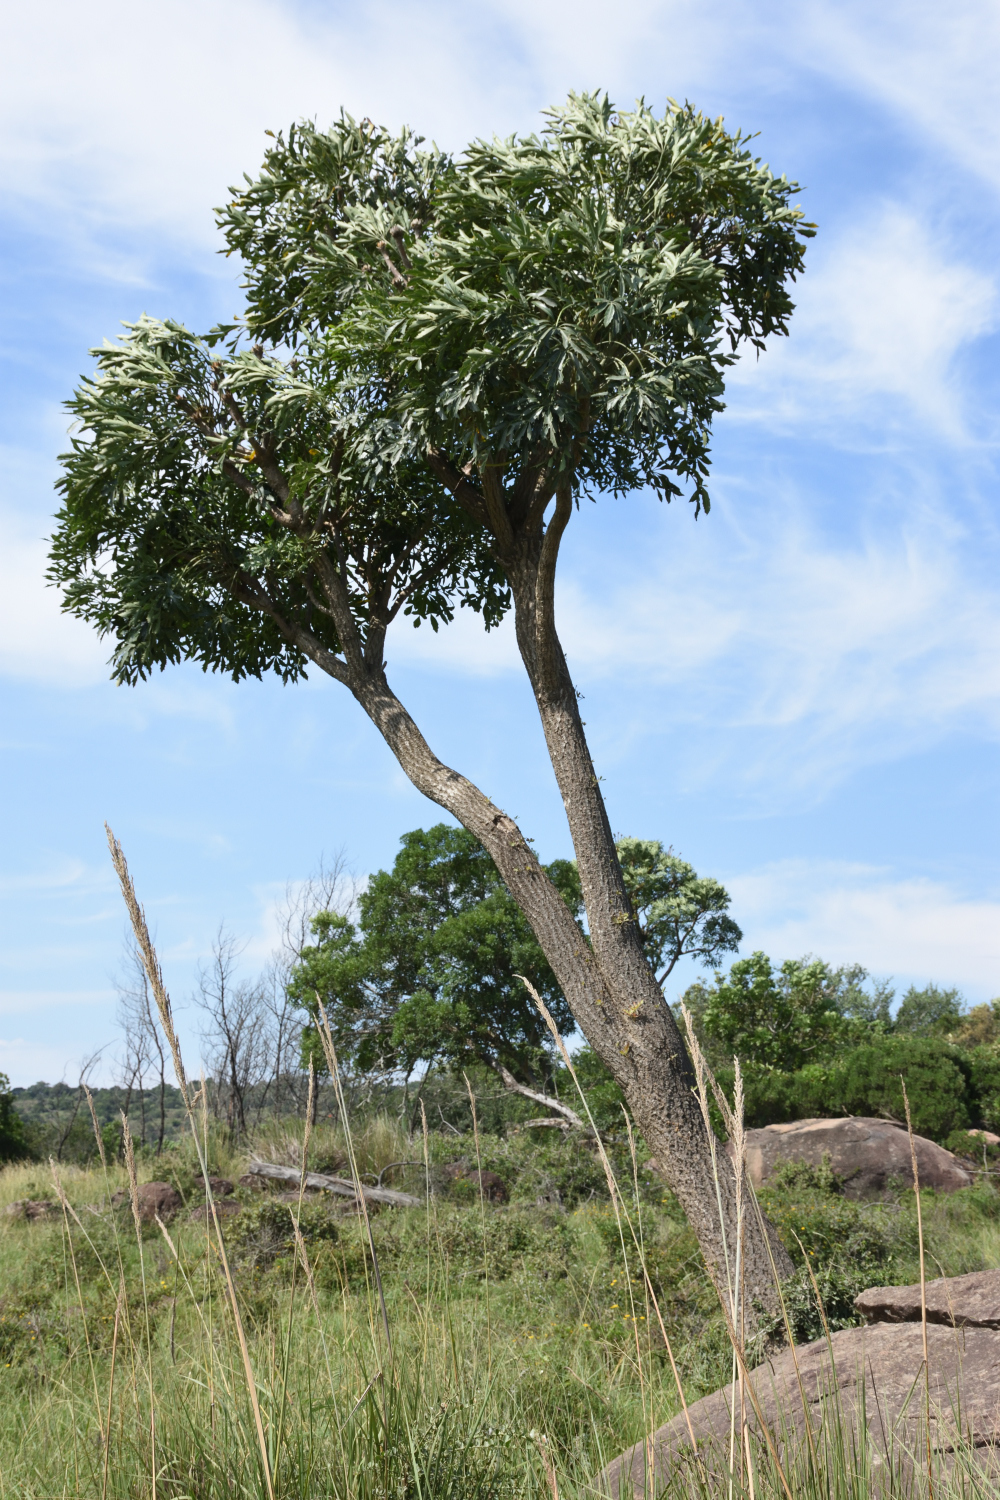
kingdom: Plantae
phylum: Tracheophyta
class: Magnoliopsida
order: Apiales
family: Araliaceae
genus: Cussonia
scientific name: Cussonia spicata
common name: Common cabbagetree
